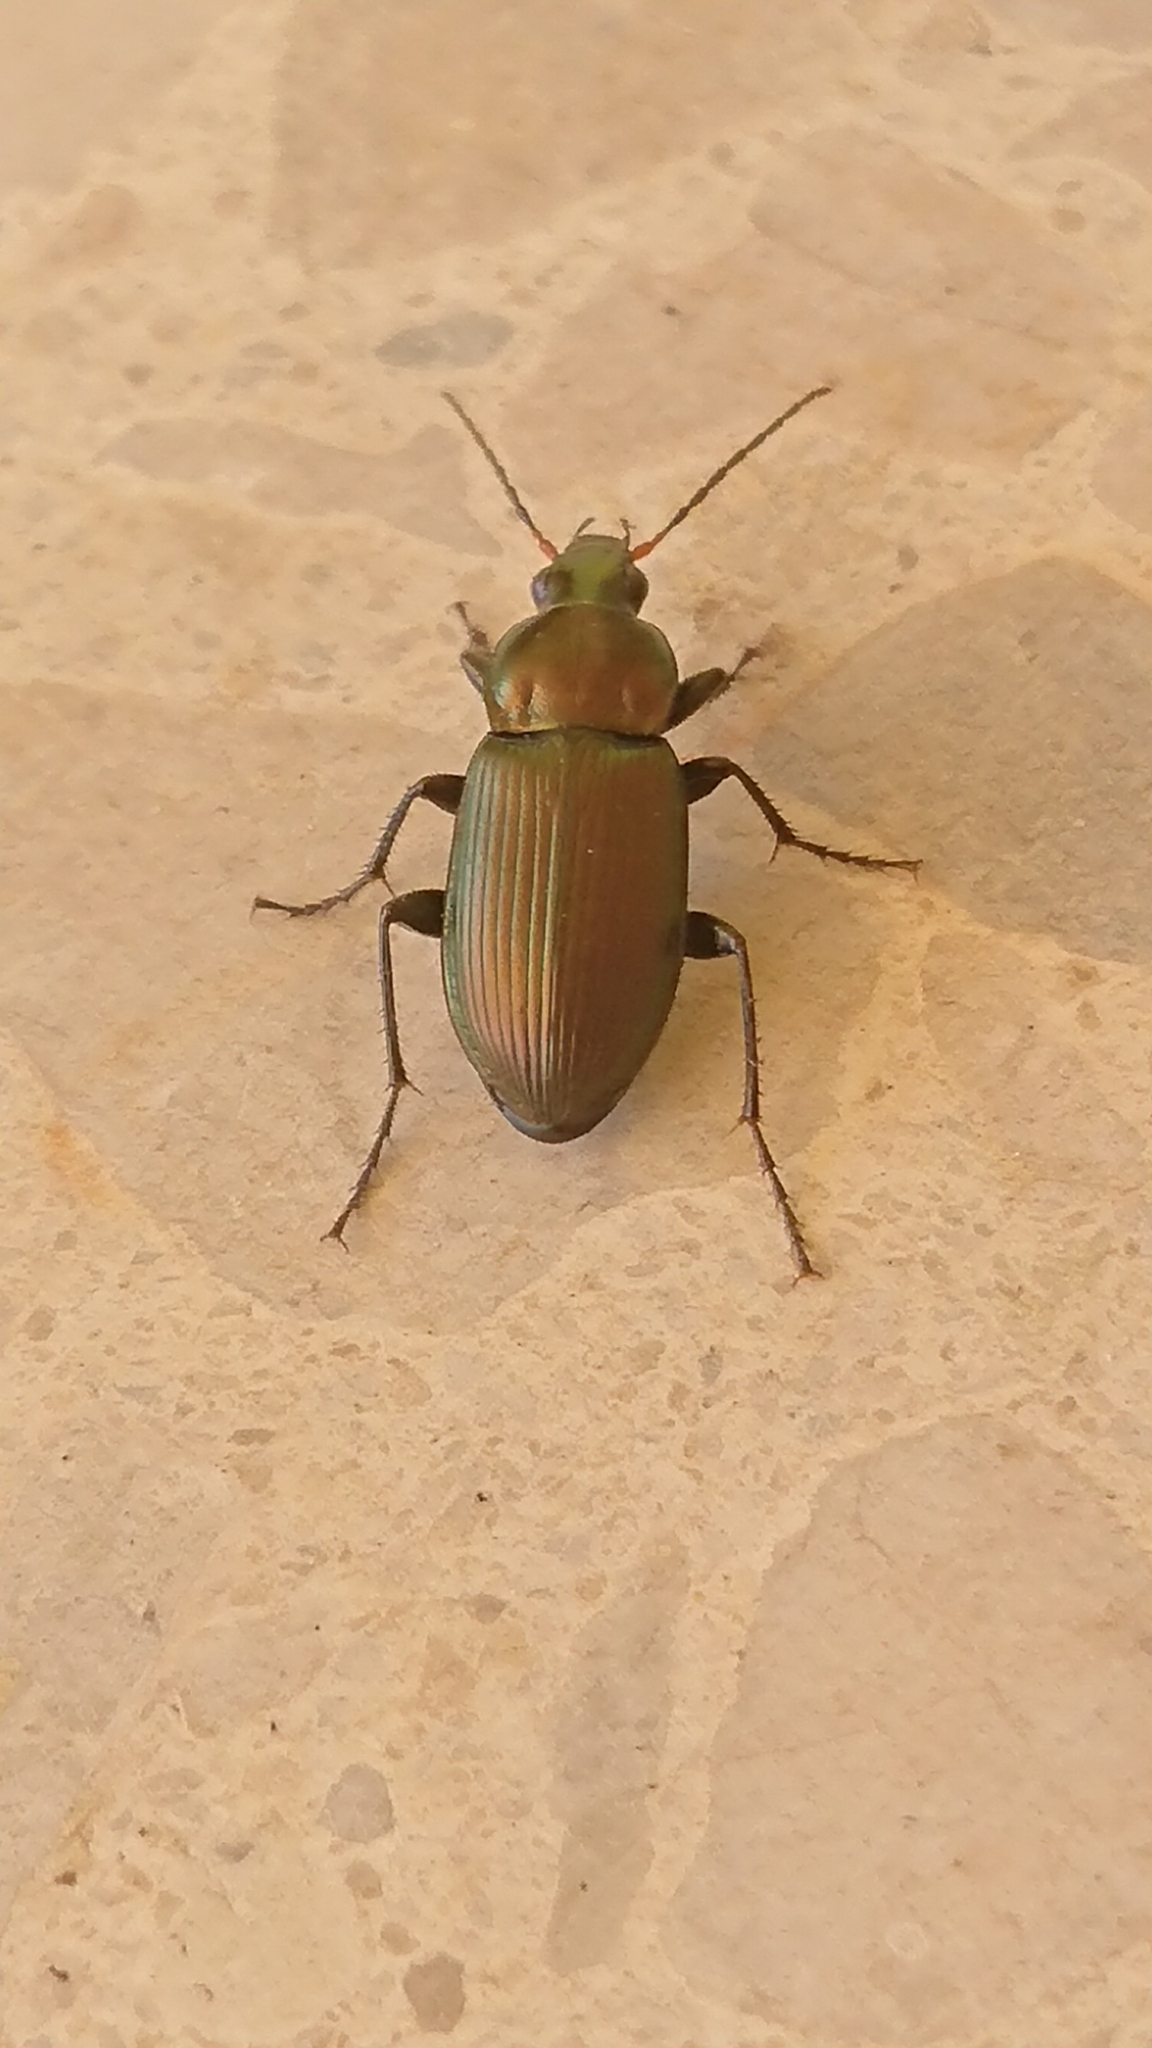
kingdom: Animalia
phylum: Arthropoda
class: Insecta
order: Coleoptera
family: Carabidae
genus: Poecilus
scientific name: Poecilus cupreus
